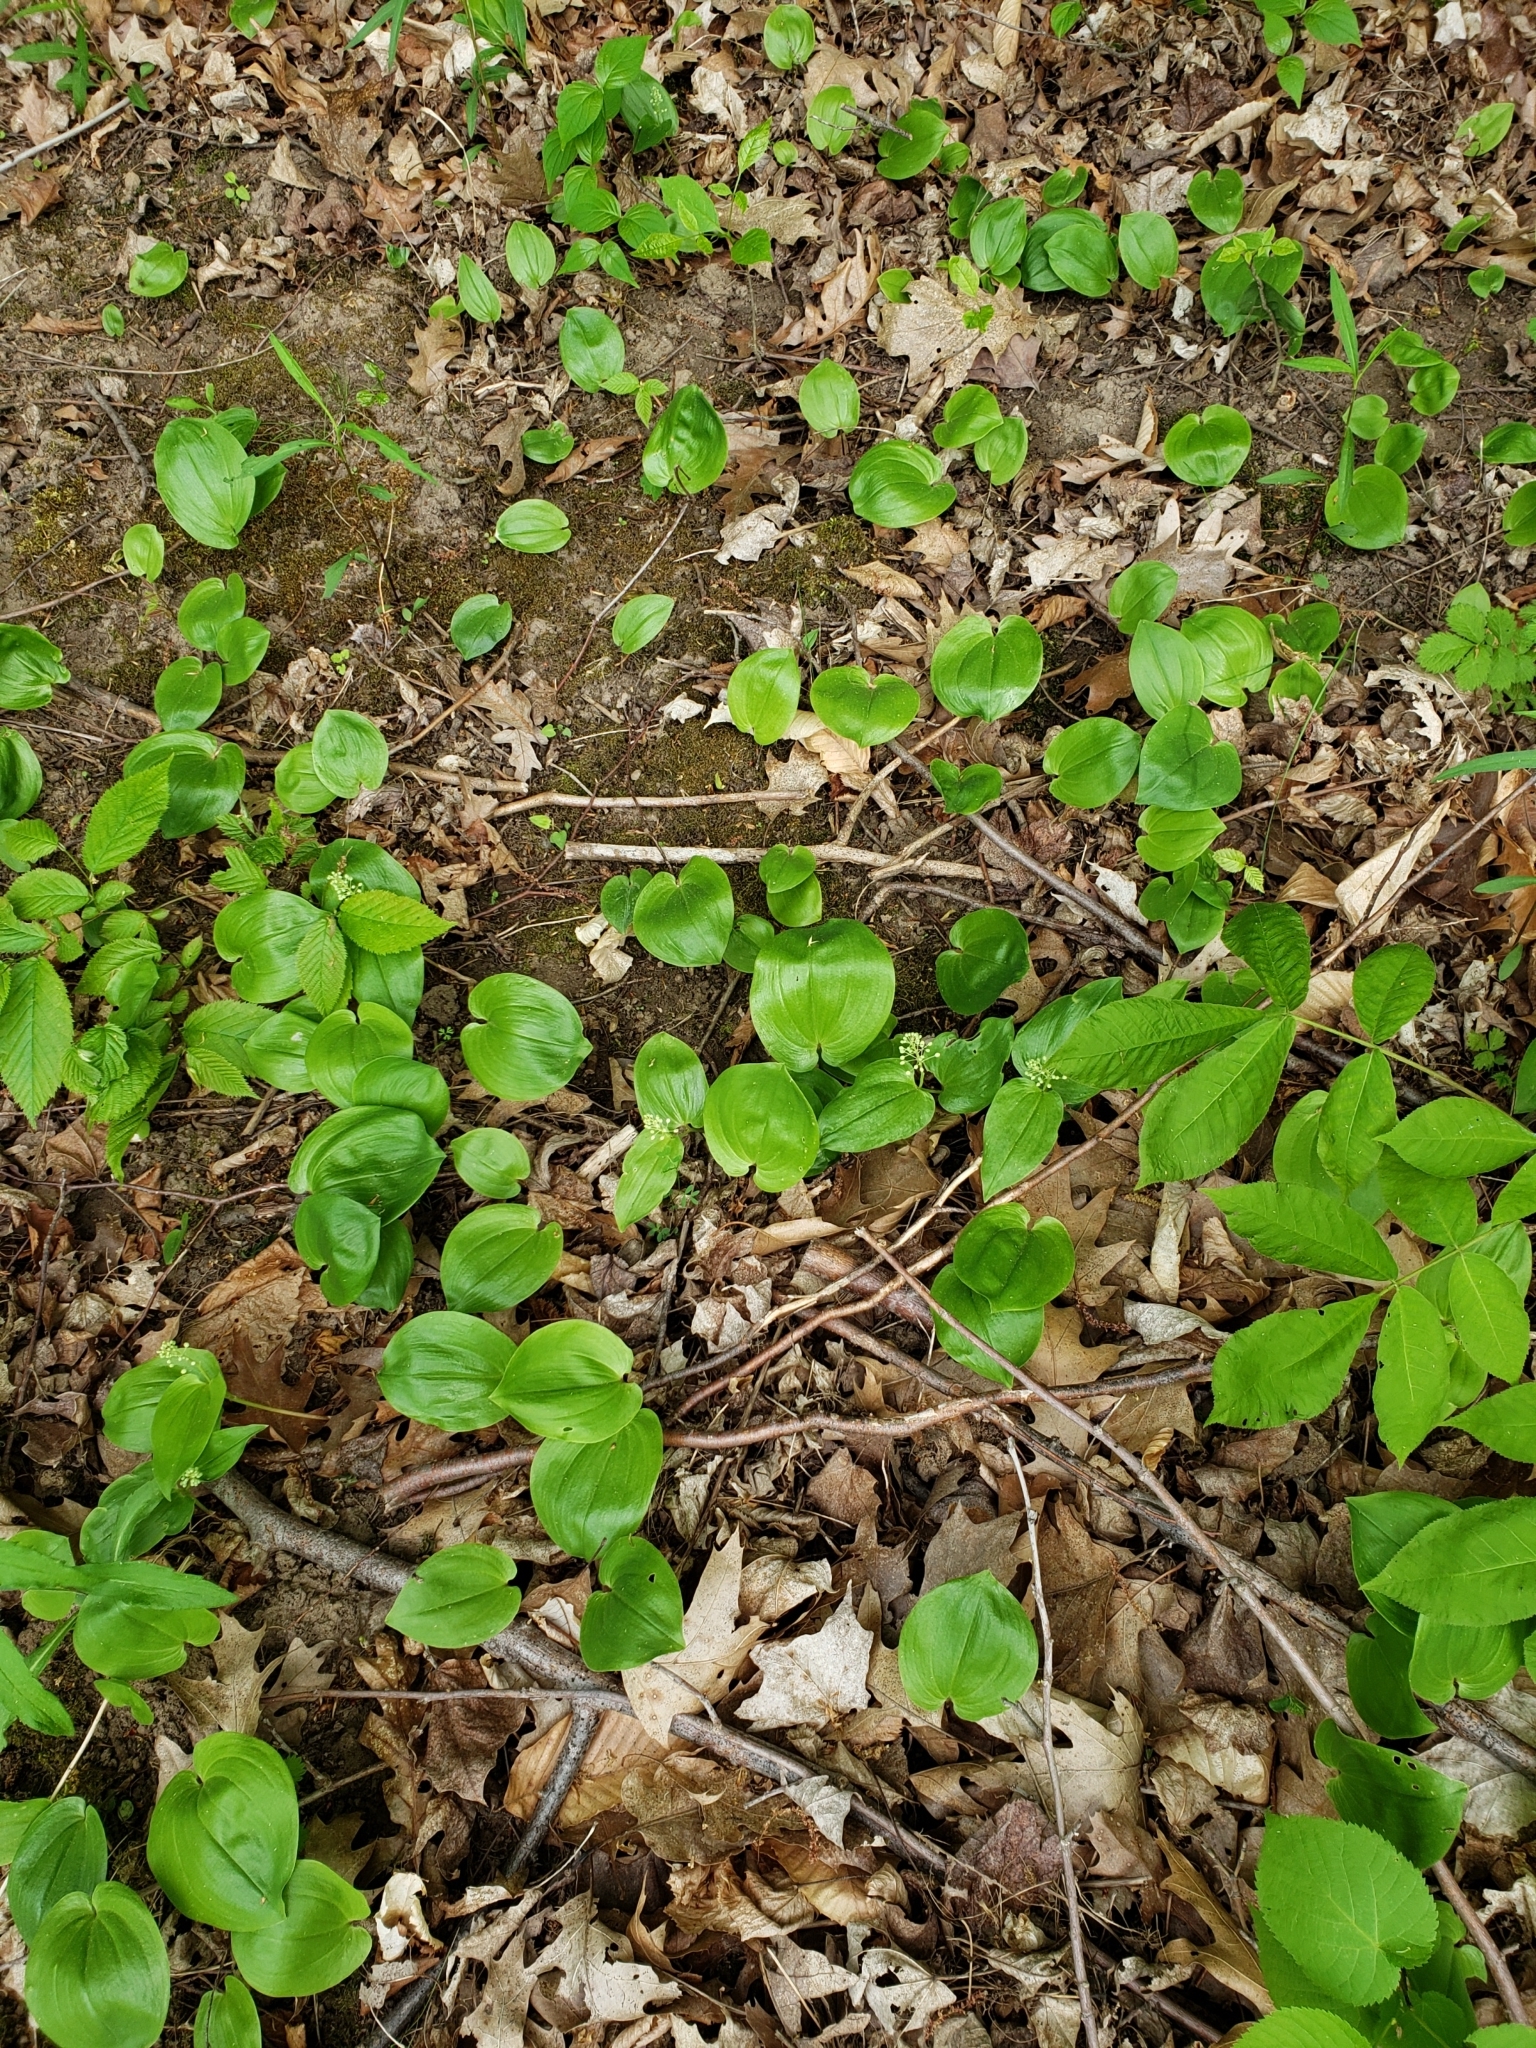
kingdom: Plantae
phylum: Tracheophyta
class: Liliopsida
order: Asparagales
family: Asparagaceae
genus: Maianthemum
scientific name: Maianthemum canadense
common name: False lily-of-the-valley
